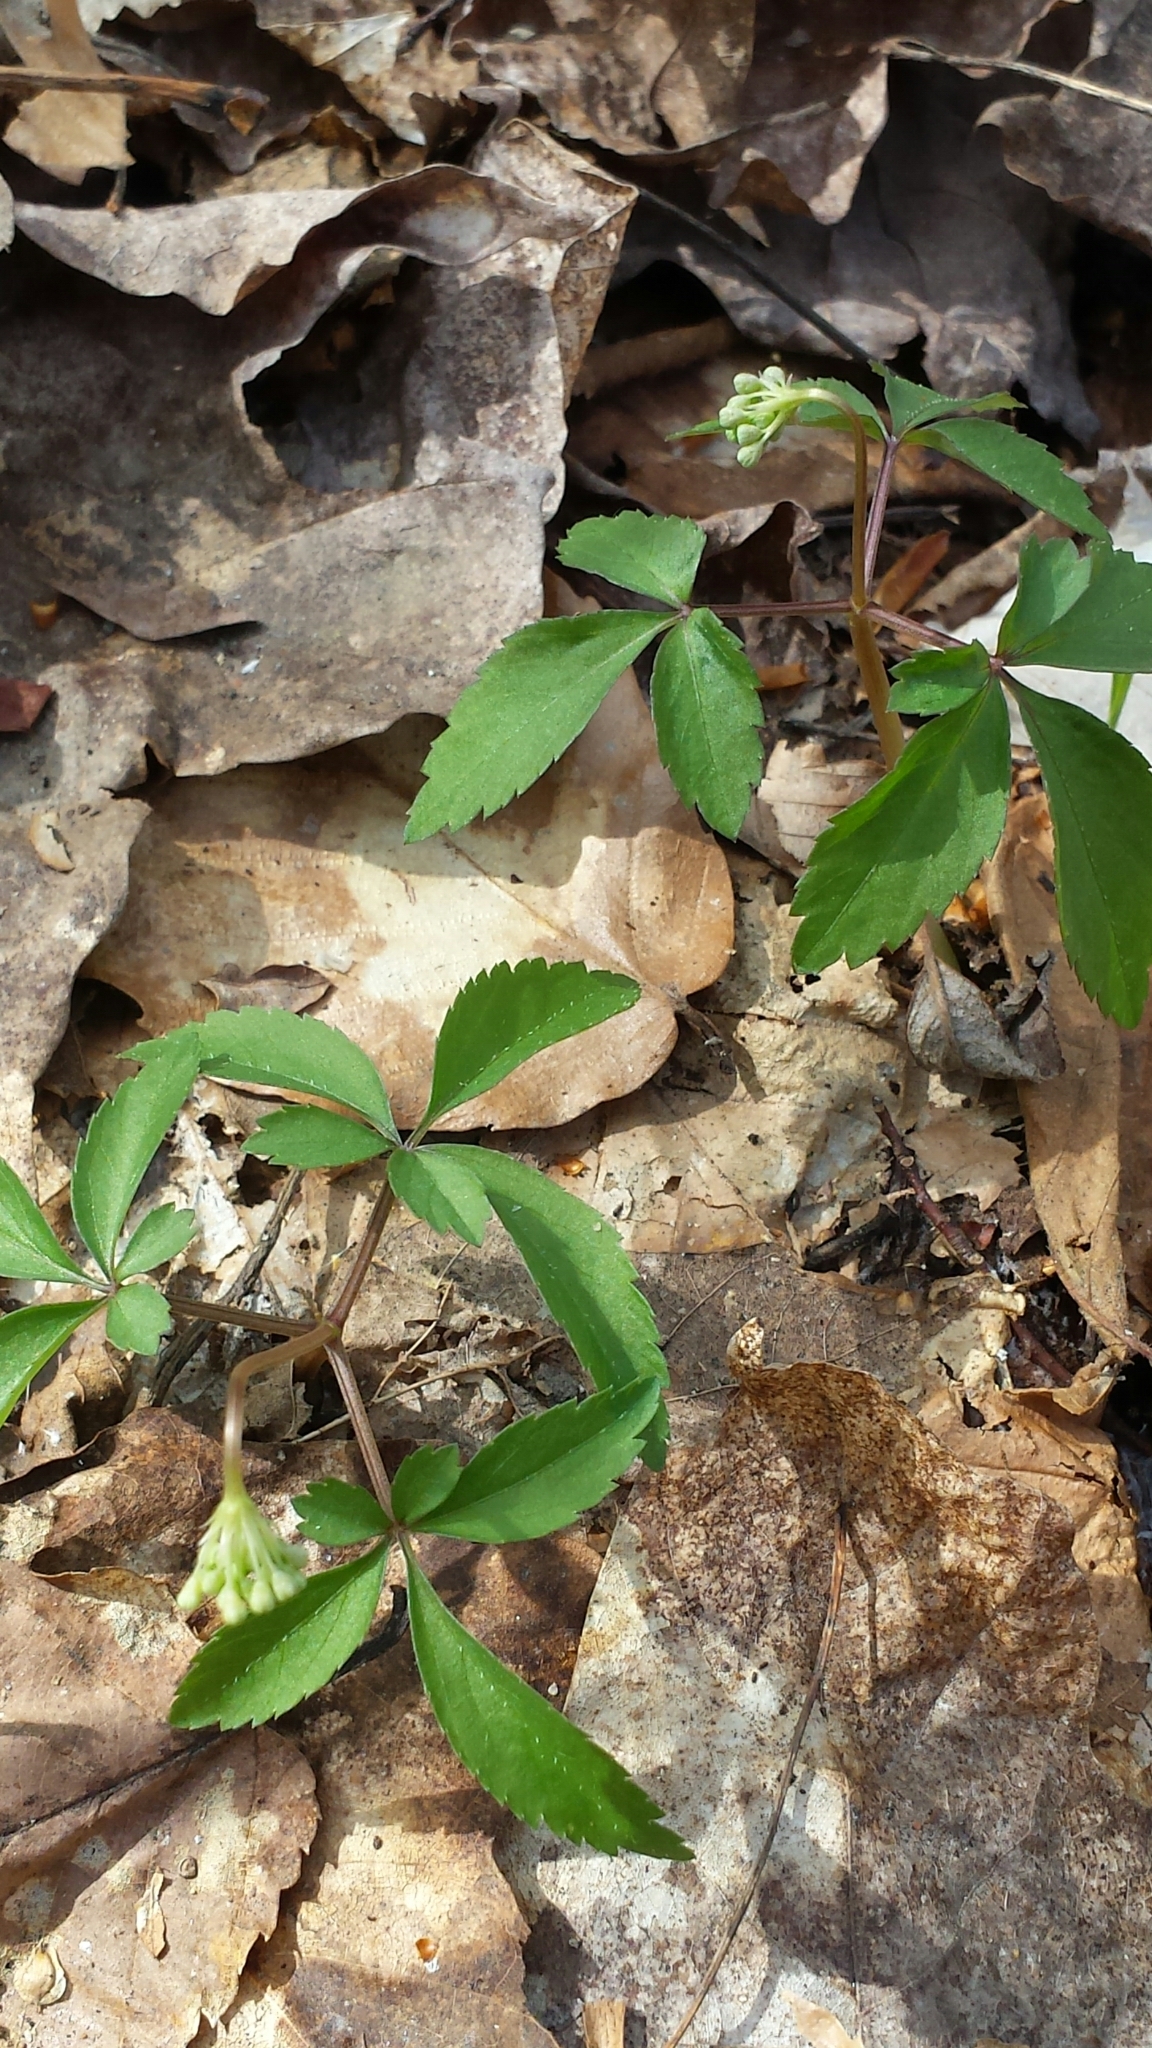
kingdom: Plantae
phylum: Tracheophyta
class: Magnoliopsida
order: Apiales
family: Araliaceae
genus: Panax
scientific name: Panax trifolius
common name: Dwarf ginseng
